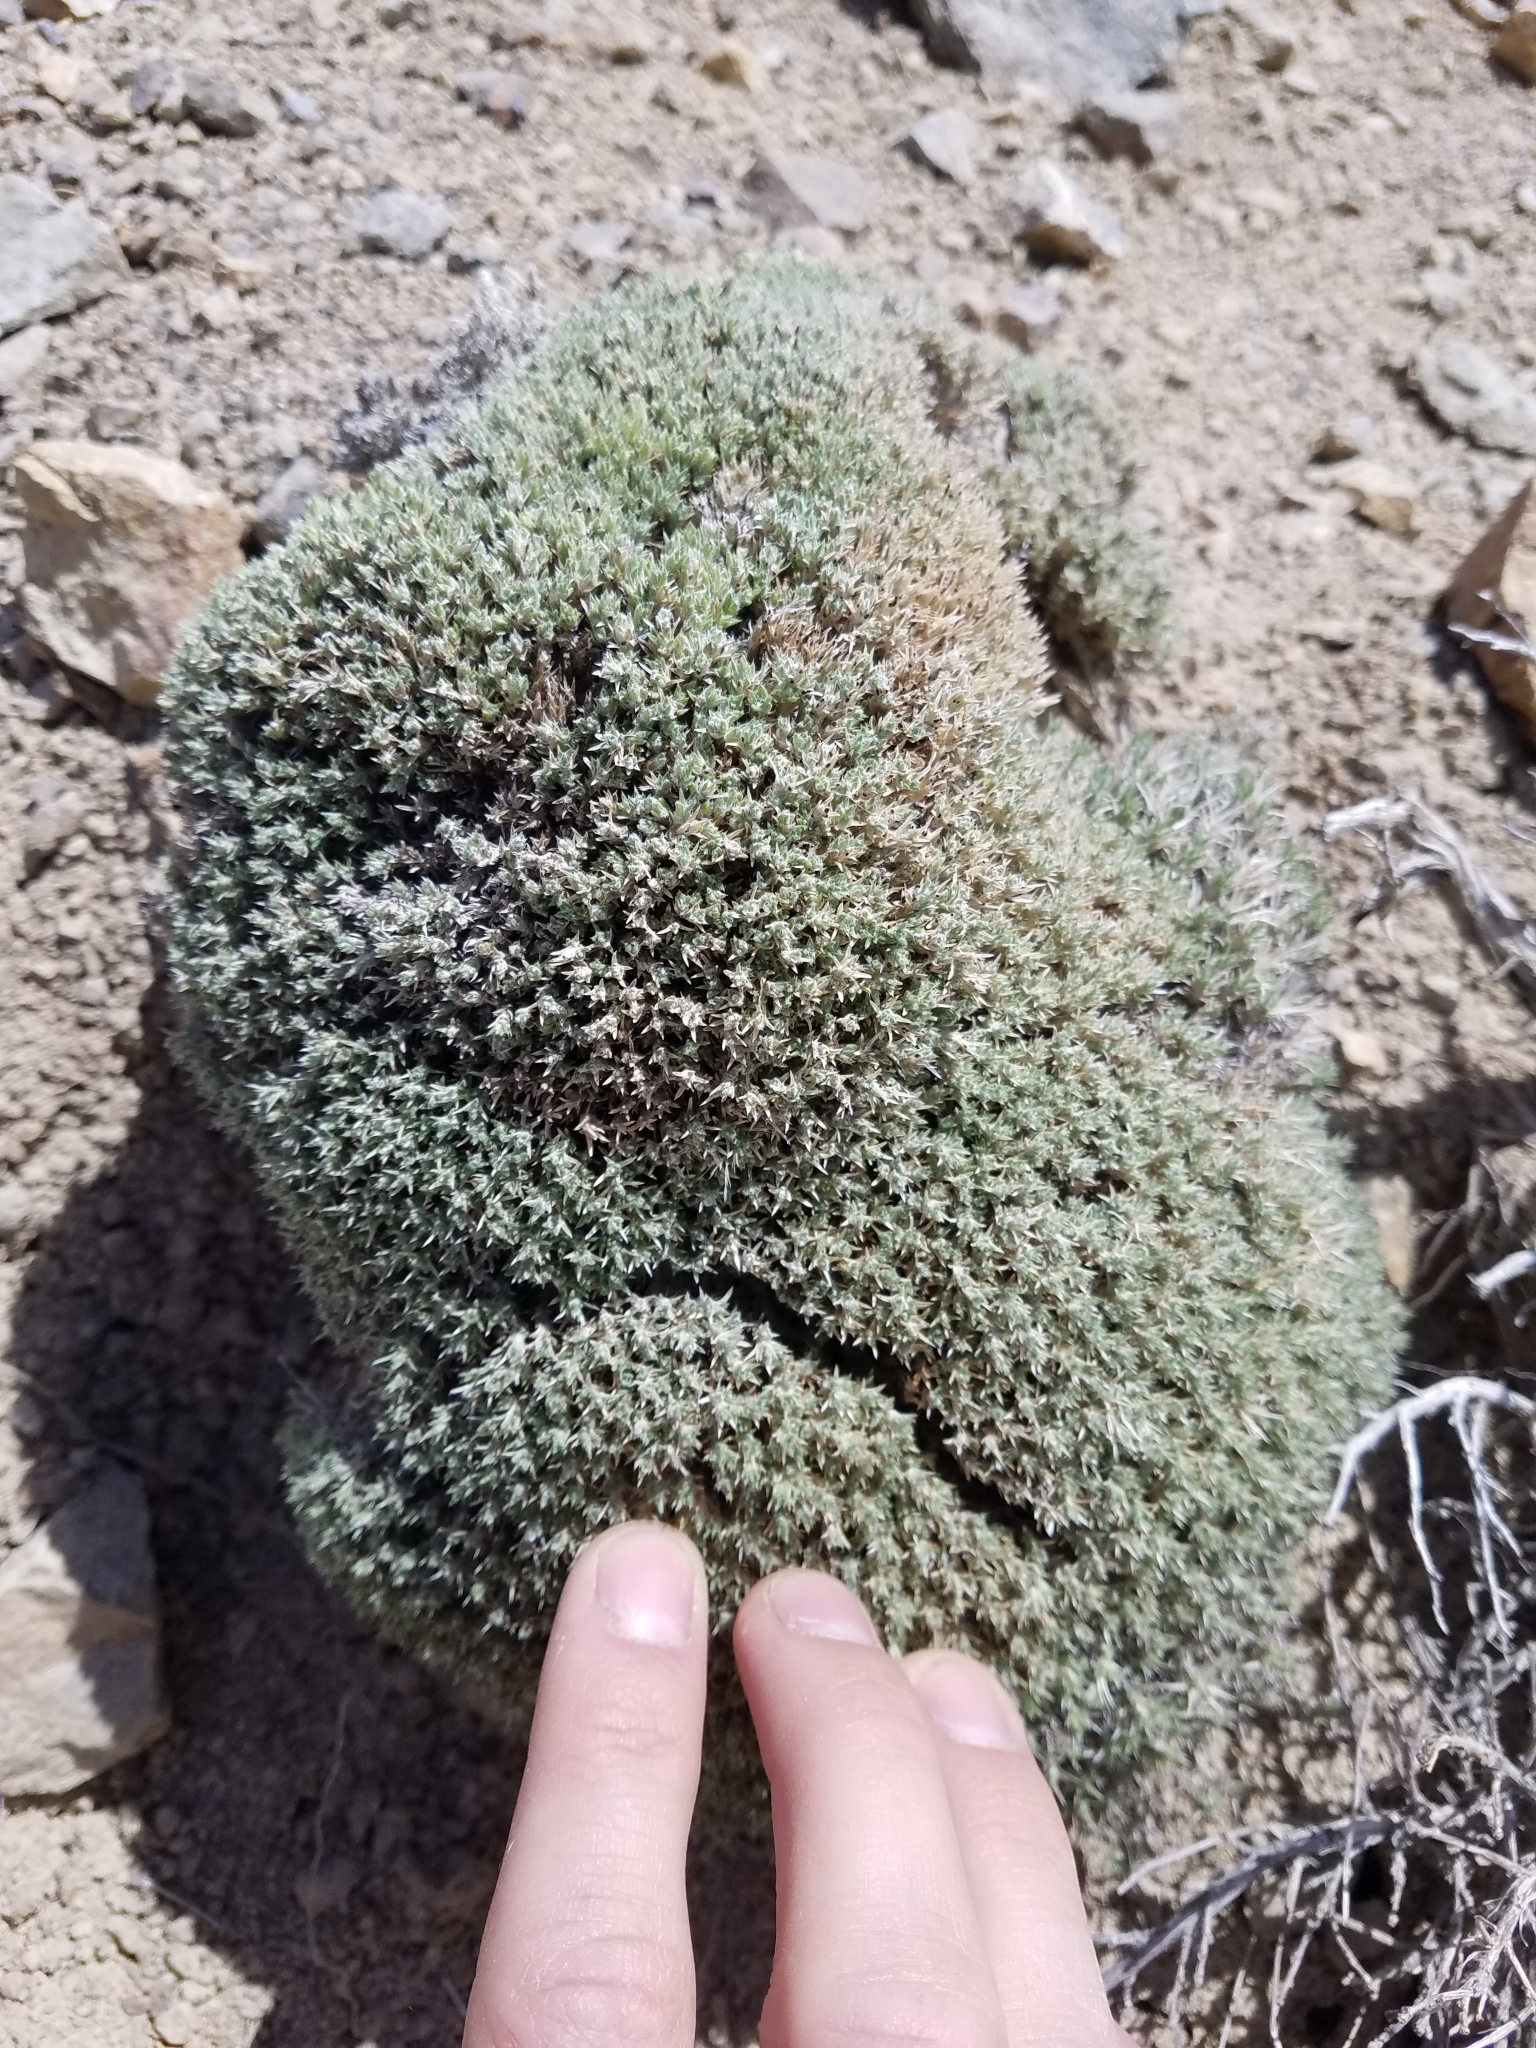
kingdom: Plantae
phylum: Tracheophyta
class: Magnoliopsida
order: Ericales
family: Polemoniaceae
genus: Phlox
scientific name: Phlox hoodii
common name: Moss phlox
